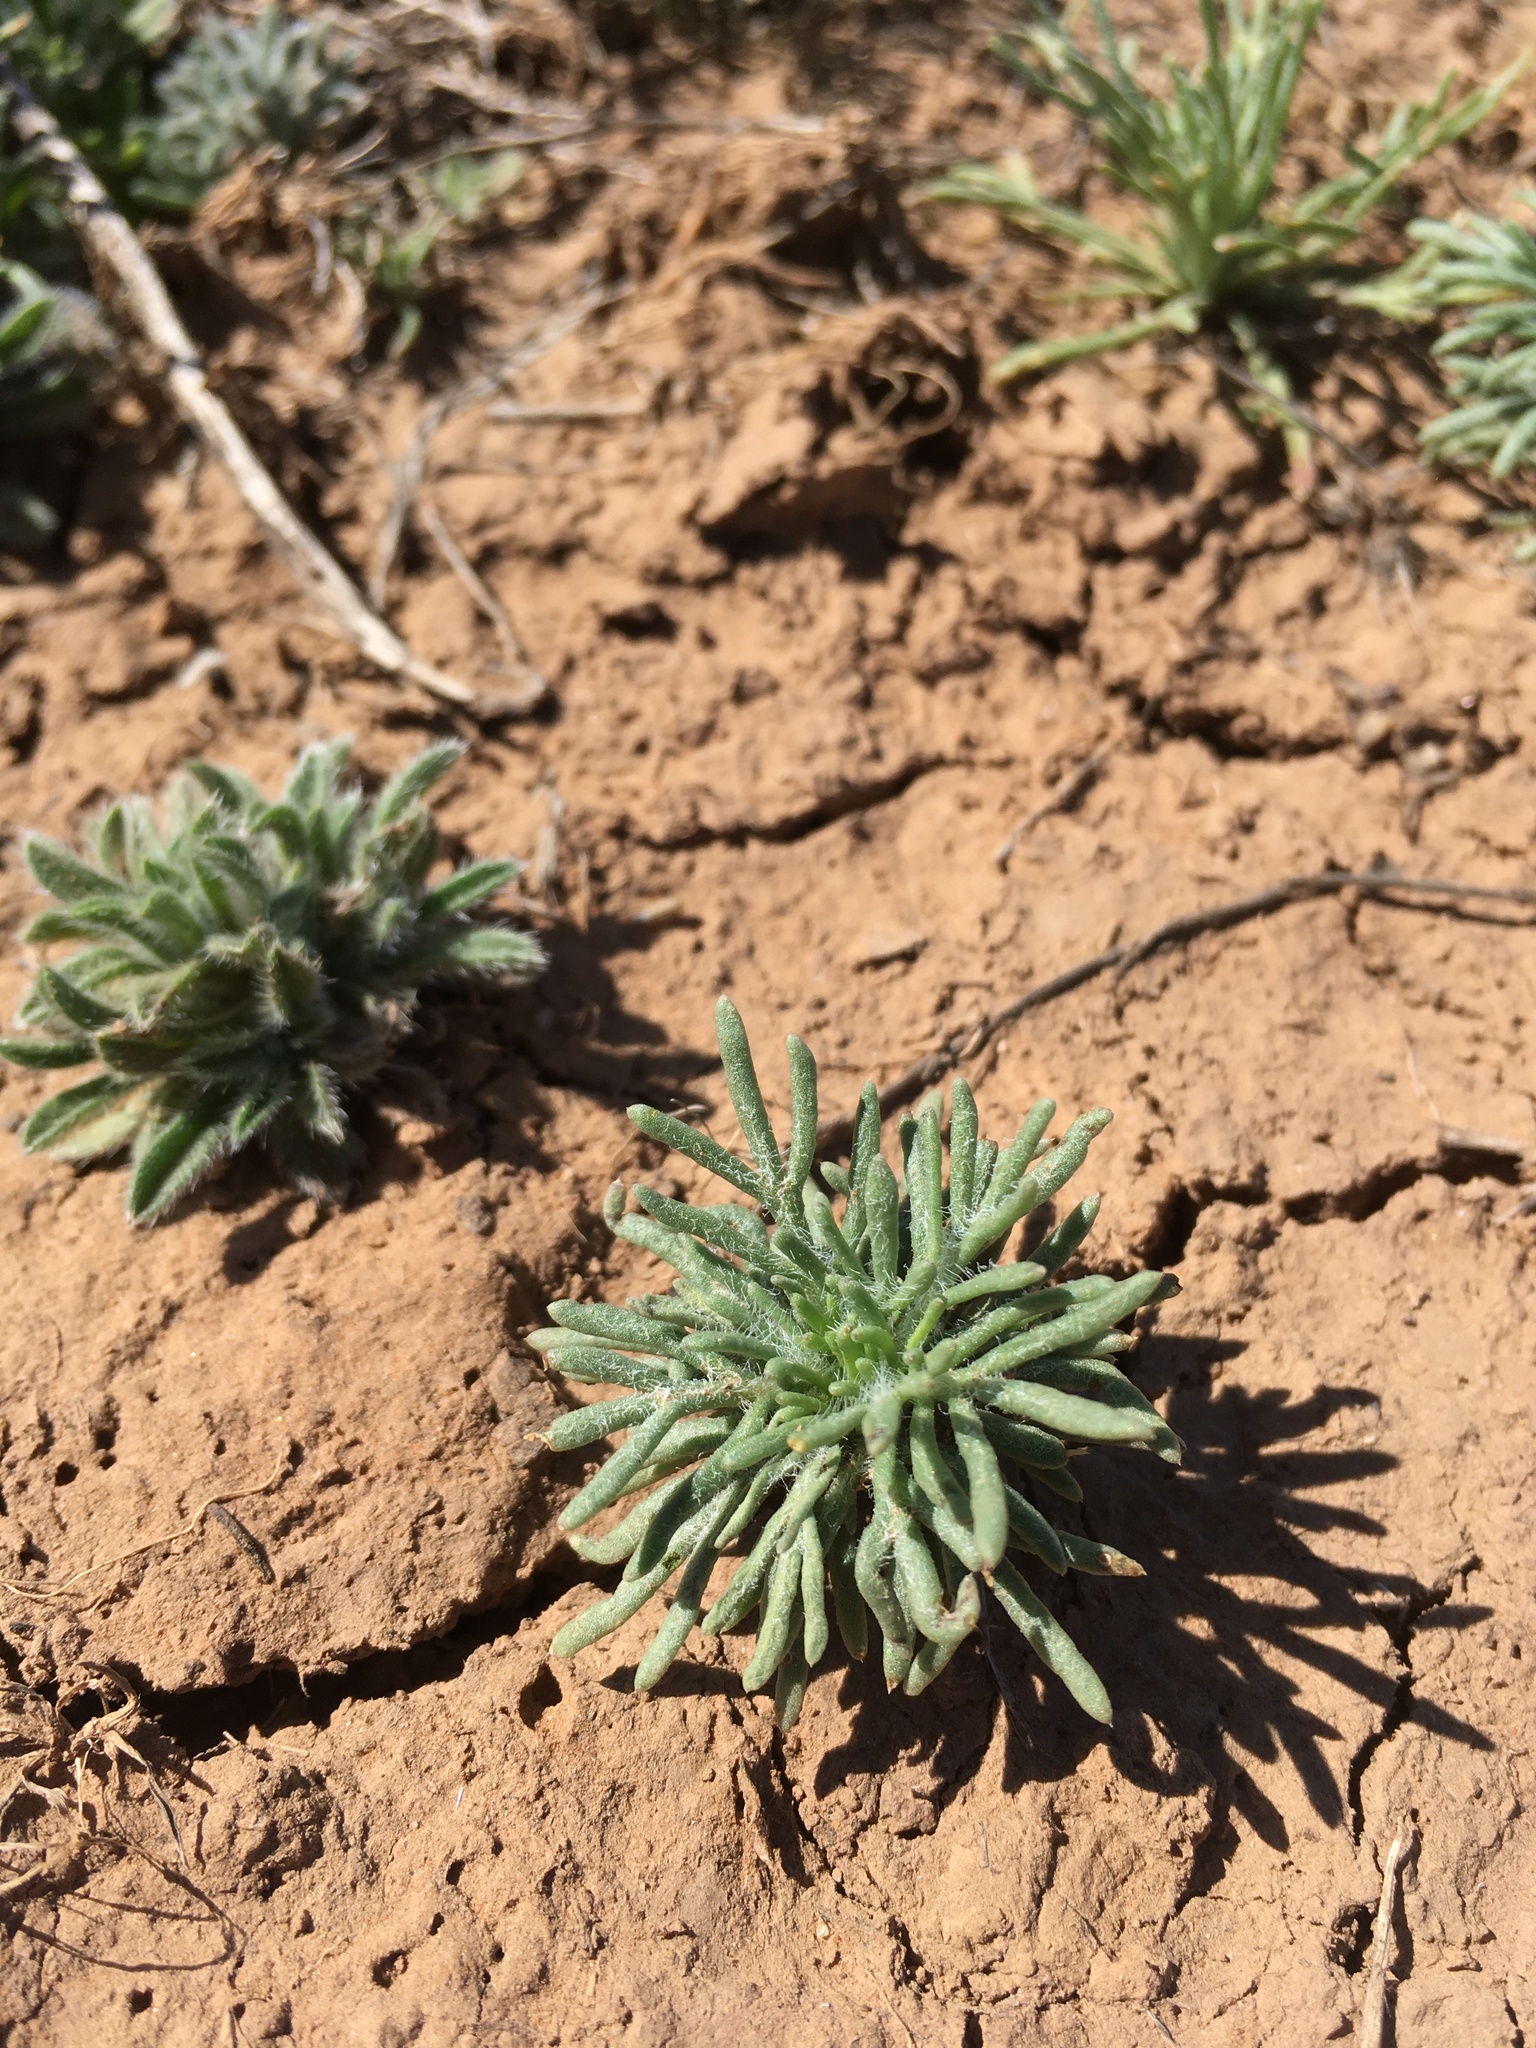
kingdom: Plantae
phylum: Tracheophyta
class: Magnoliopsida
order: Ericales
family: Polemoniaceae
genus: Ipomopsis
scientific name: Ipomopsis pumila
